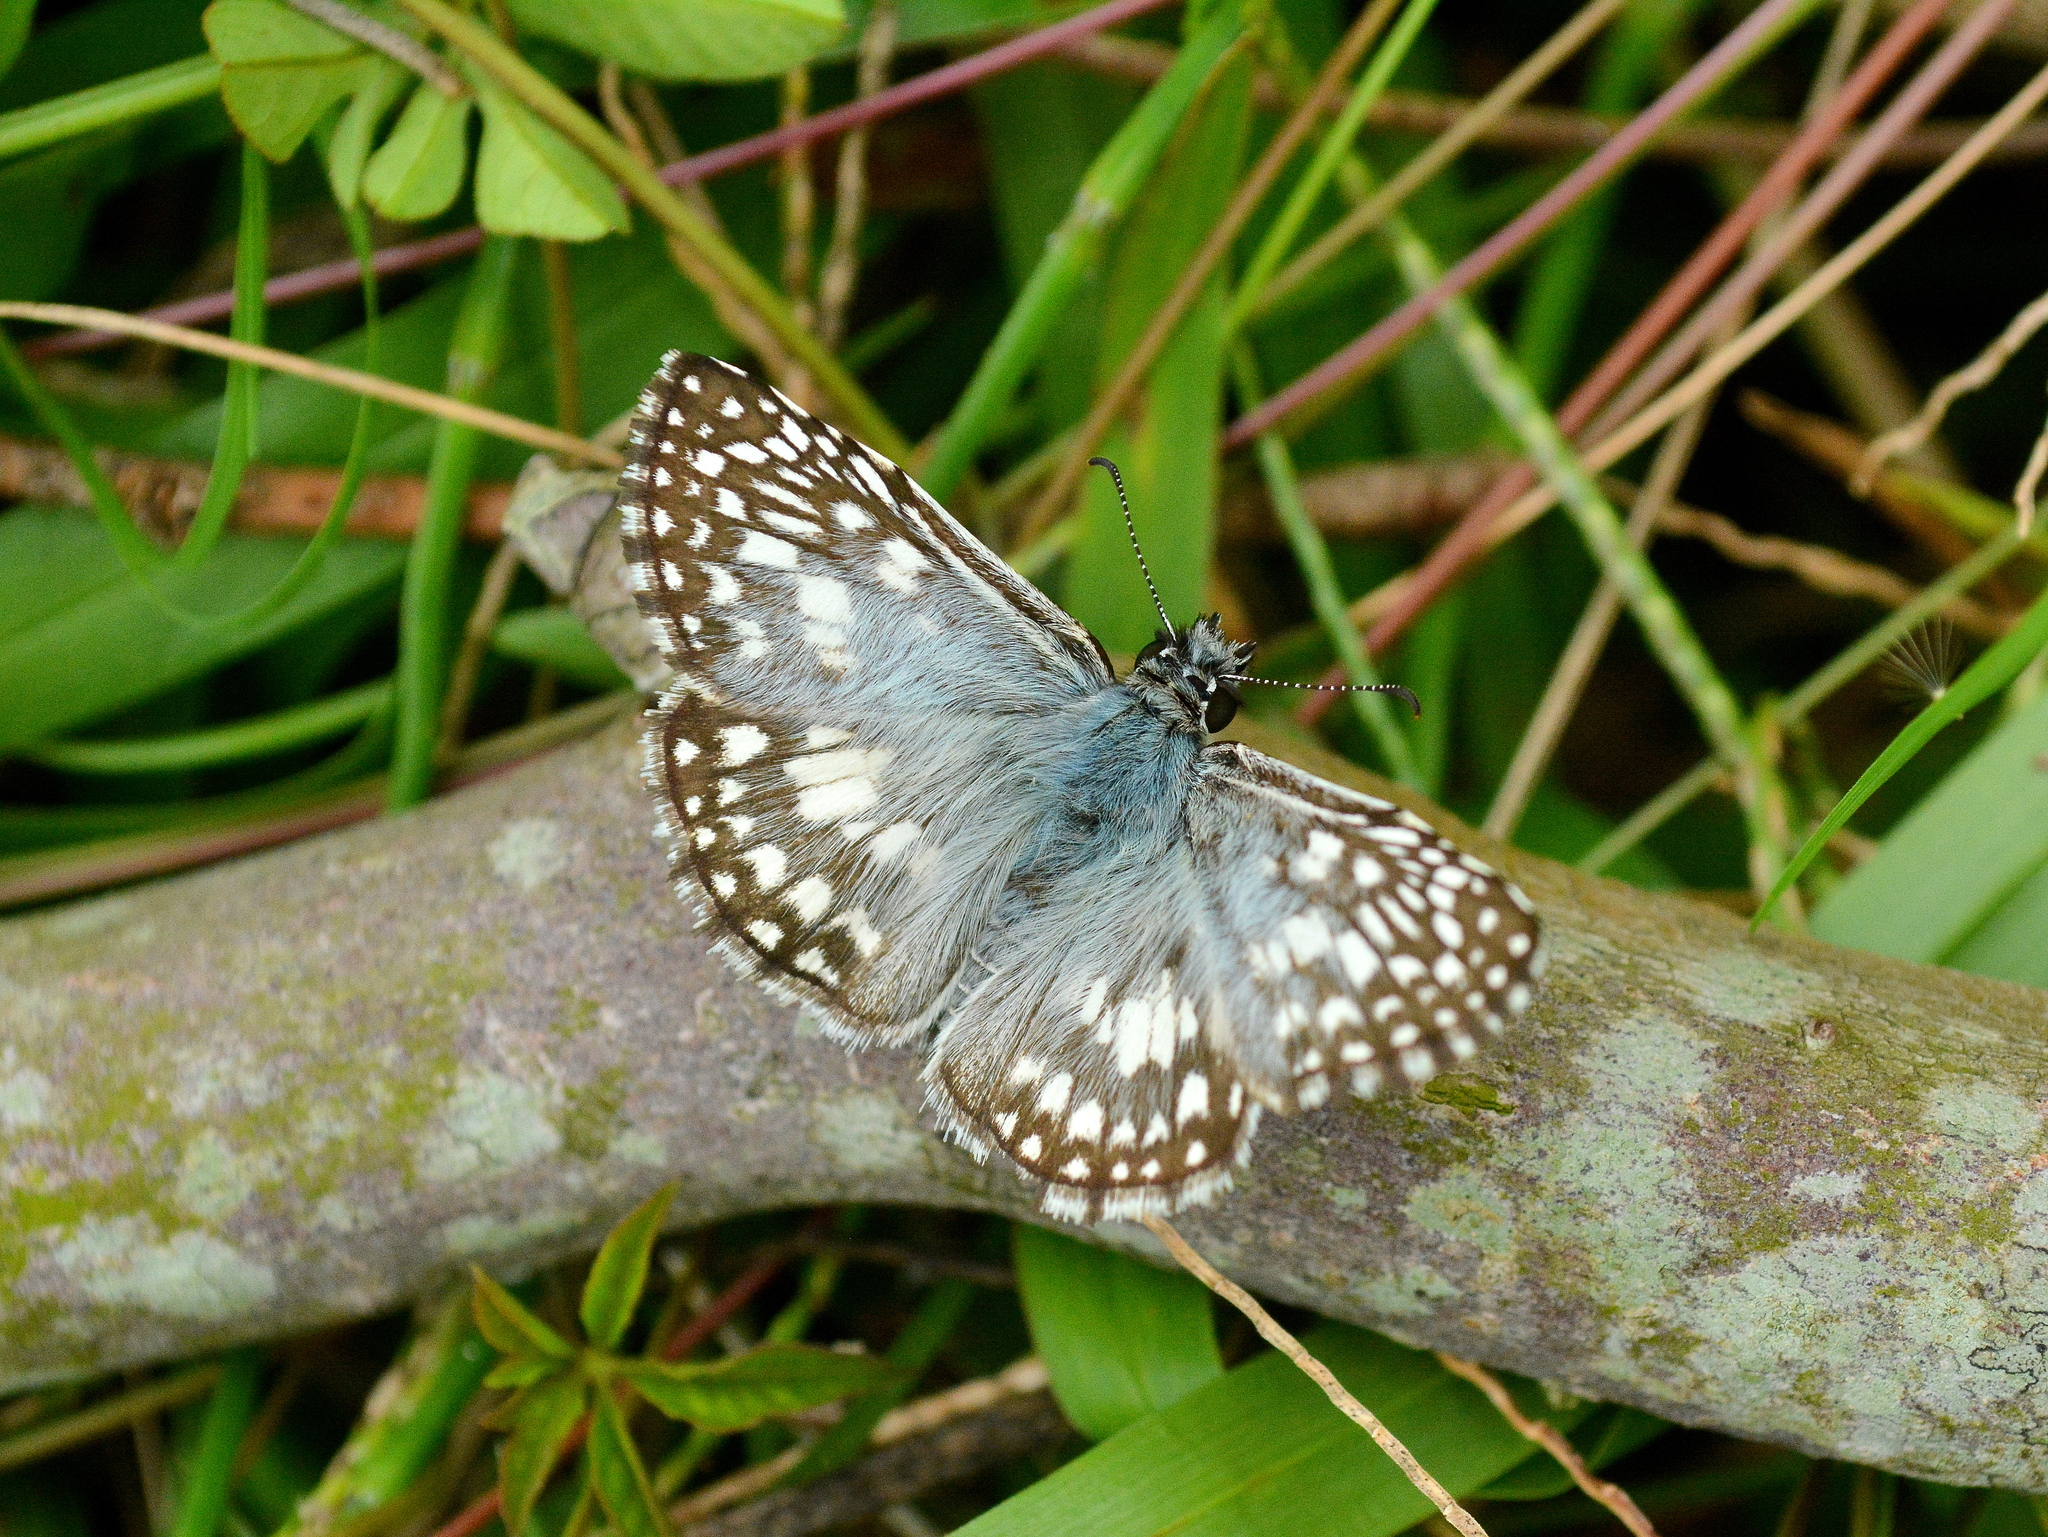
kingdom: Animalia
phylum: Arthropoda
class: Insecta
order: Lepidoptera
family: Hesperiidae
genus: Pyrgus
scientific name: Pyrgus oileus
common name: Tropical checkered-skipper
